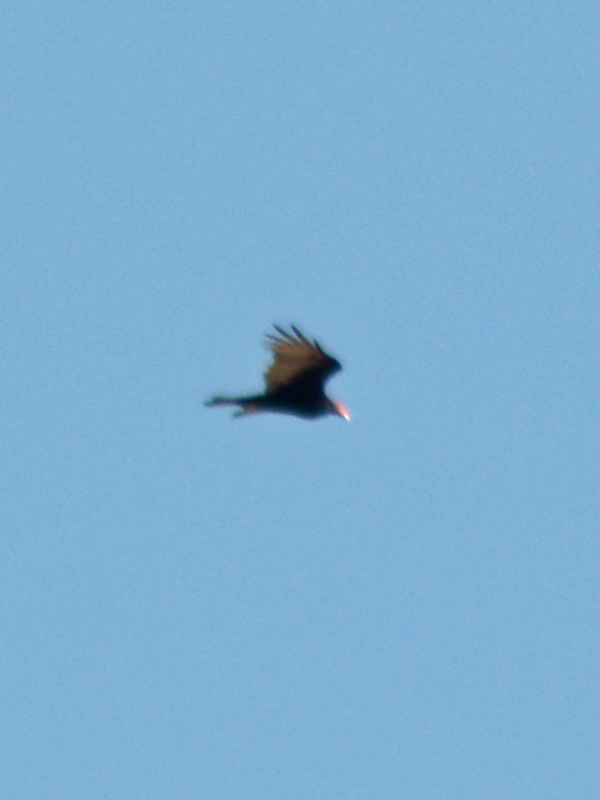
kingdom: Animalia
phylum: Chordata
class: Aves
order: Accipitriformes
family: Cathartidae
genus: Cathartes
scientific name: Cathartes aura
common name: Turkey vulture
